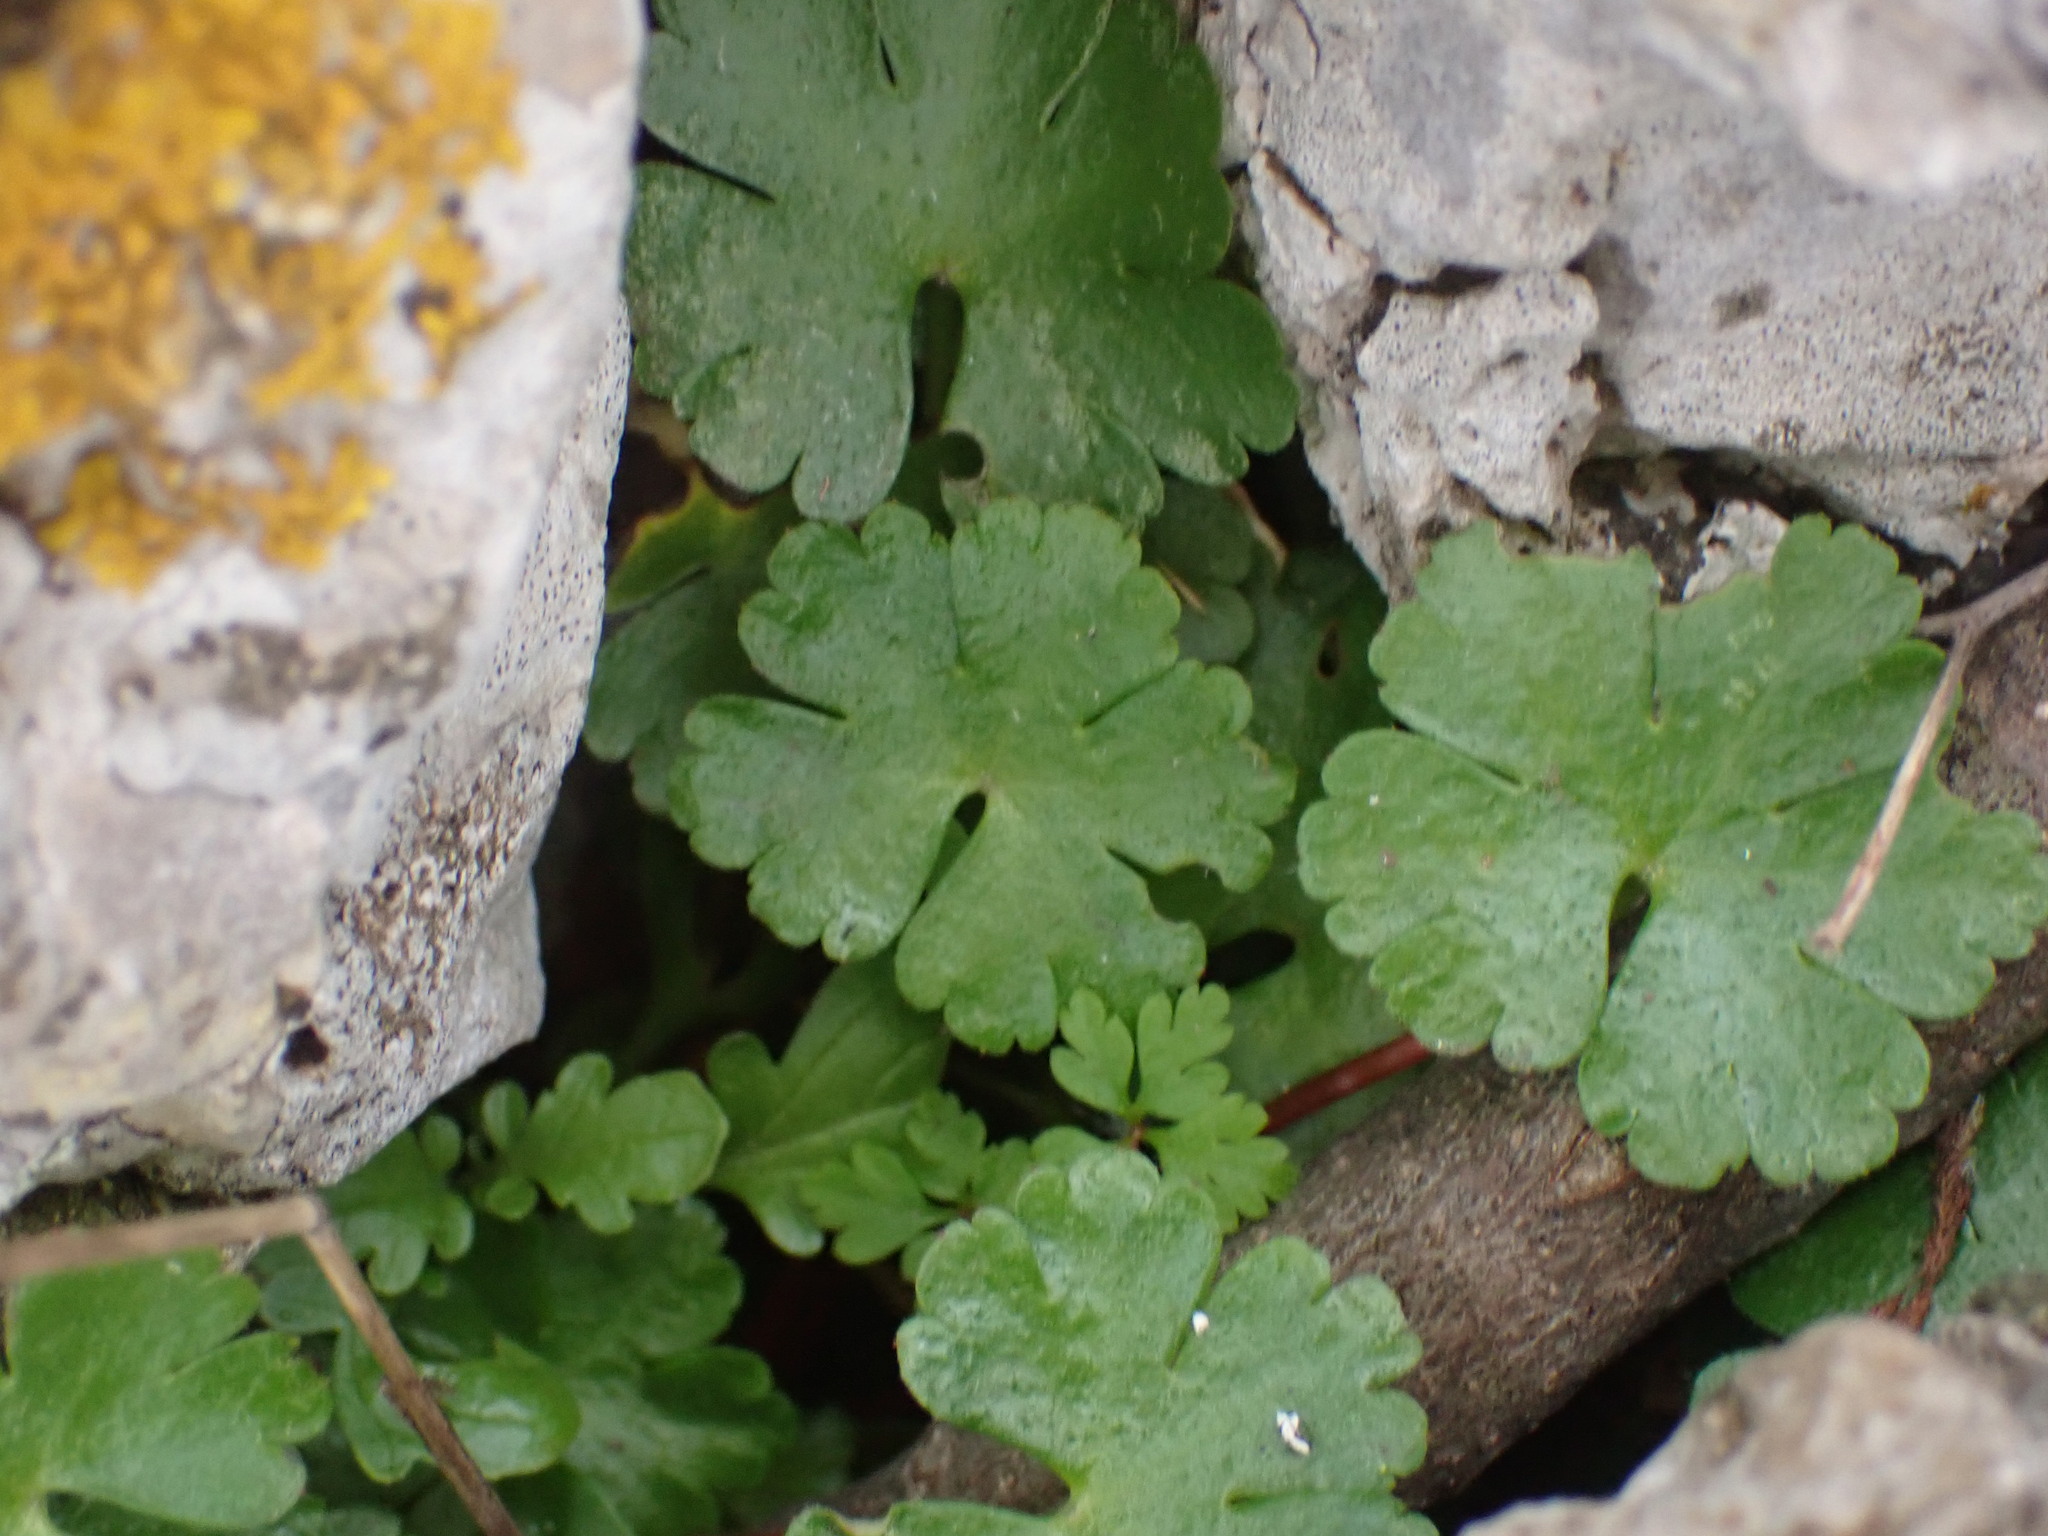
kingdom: Plantae
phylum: Tracheophyta
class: Magnoliopsida
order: Geraniales
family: Geraniaceae
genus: Geranium
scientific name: Geranium lucidum
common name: Shining crane's-bill
